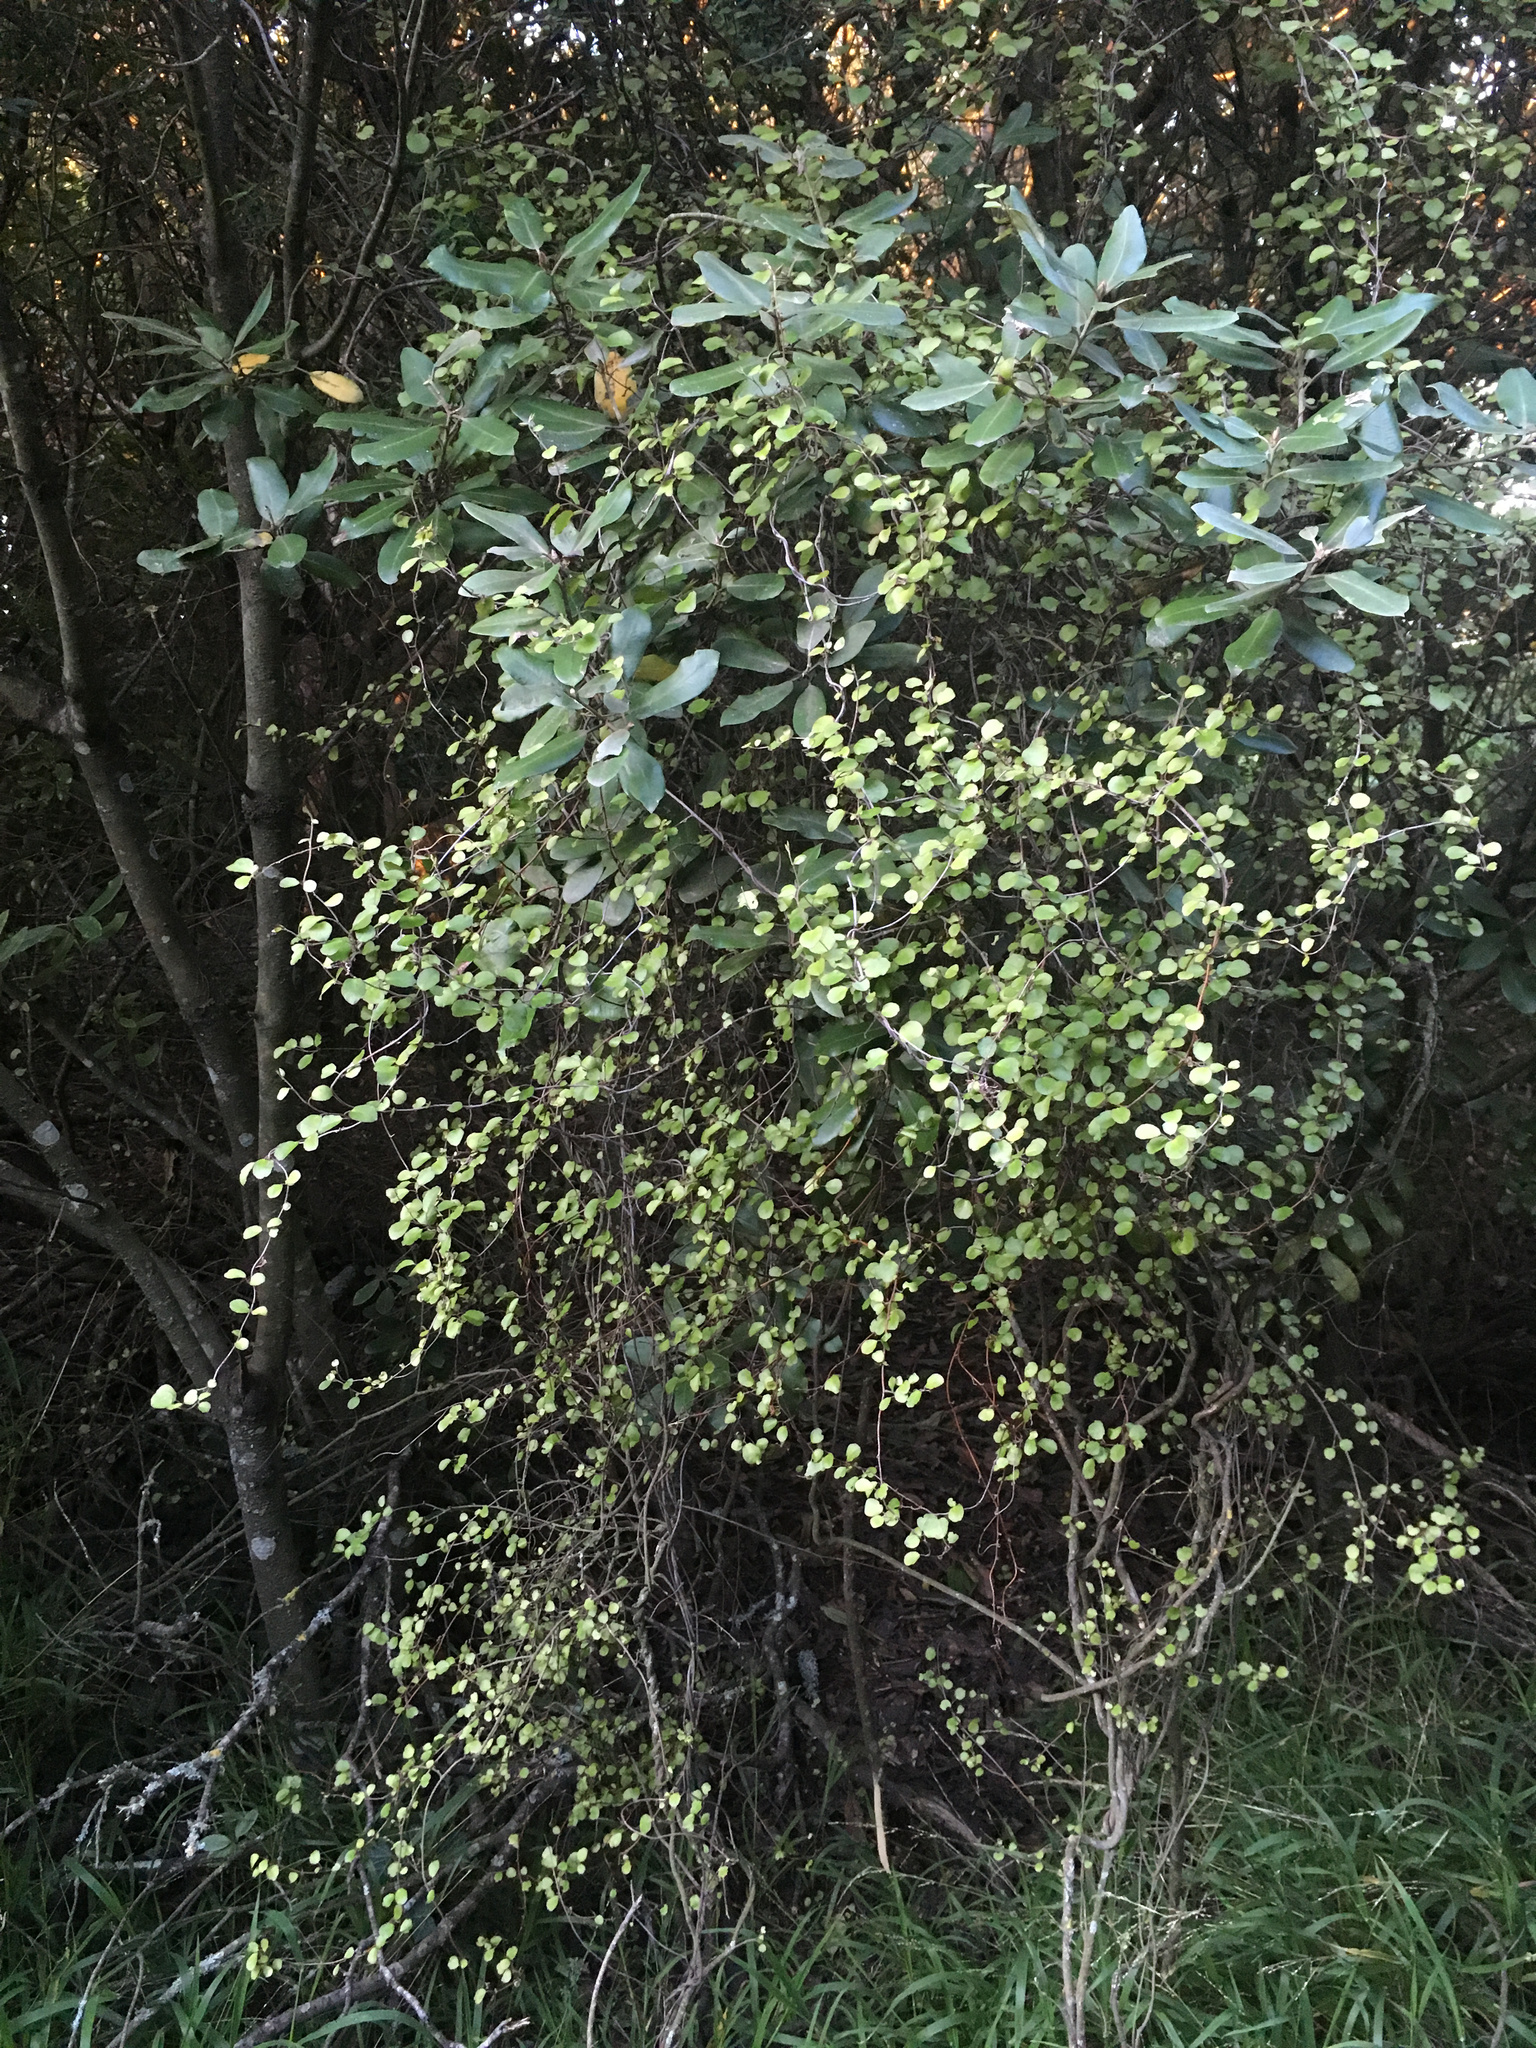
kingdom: Plantae
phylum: Tracheophyta
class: Magnoliopsida
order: Caryophyllales
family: Polygonaceae
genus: Muehlenbeckia
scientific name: Muehlenbeckia complexa
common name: Wireplant
